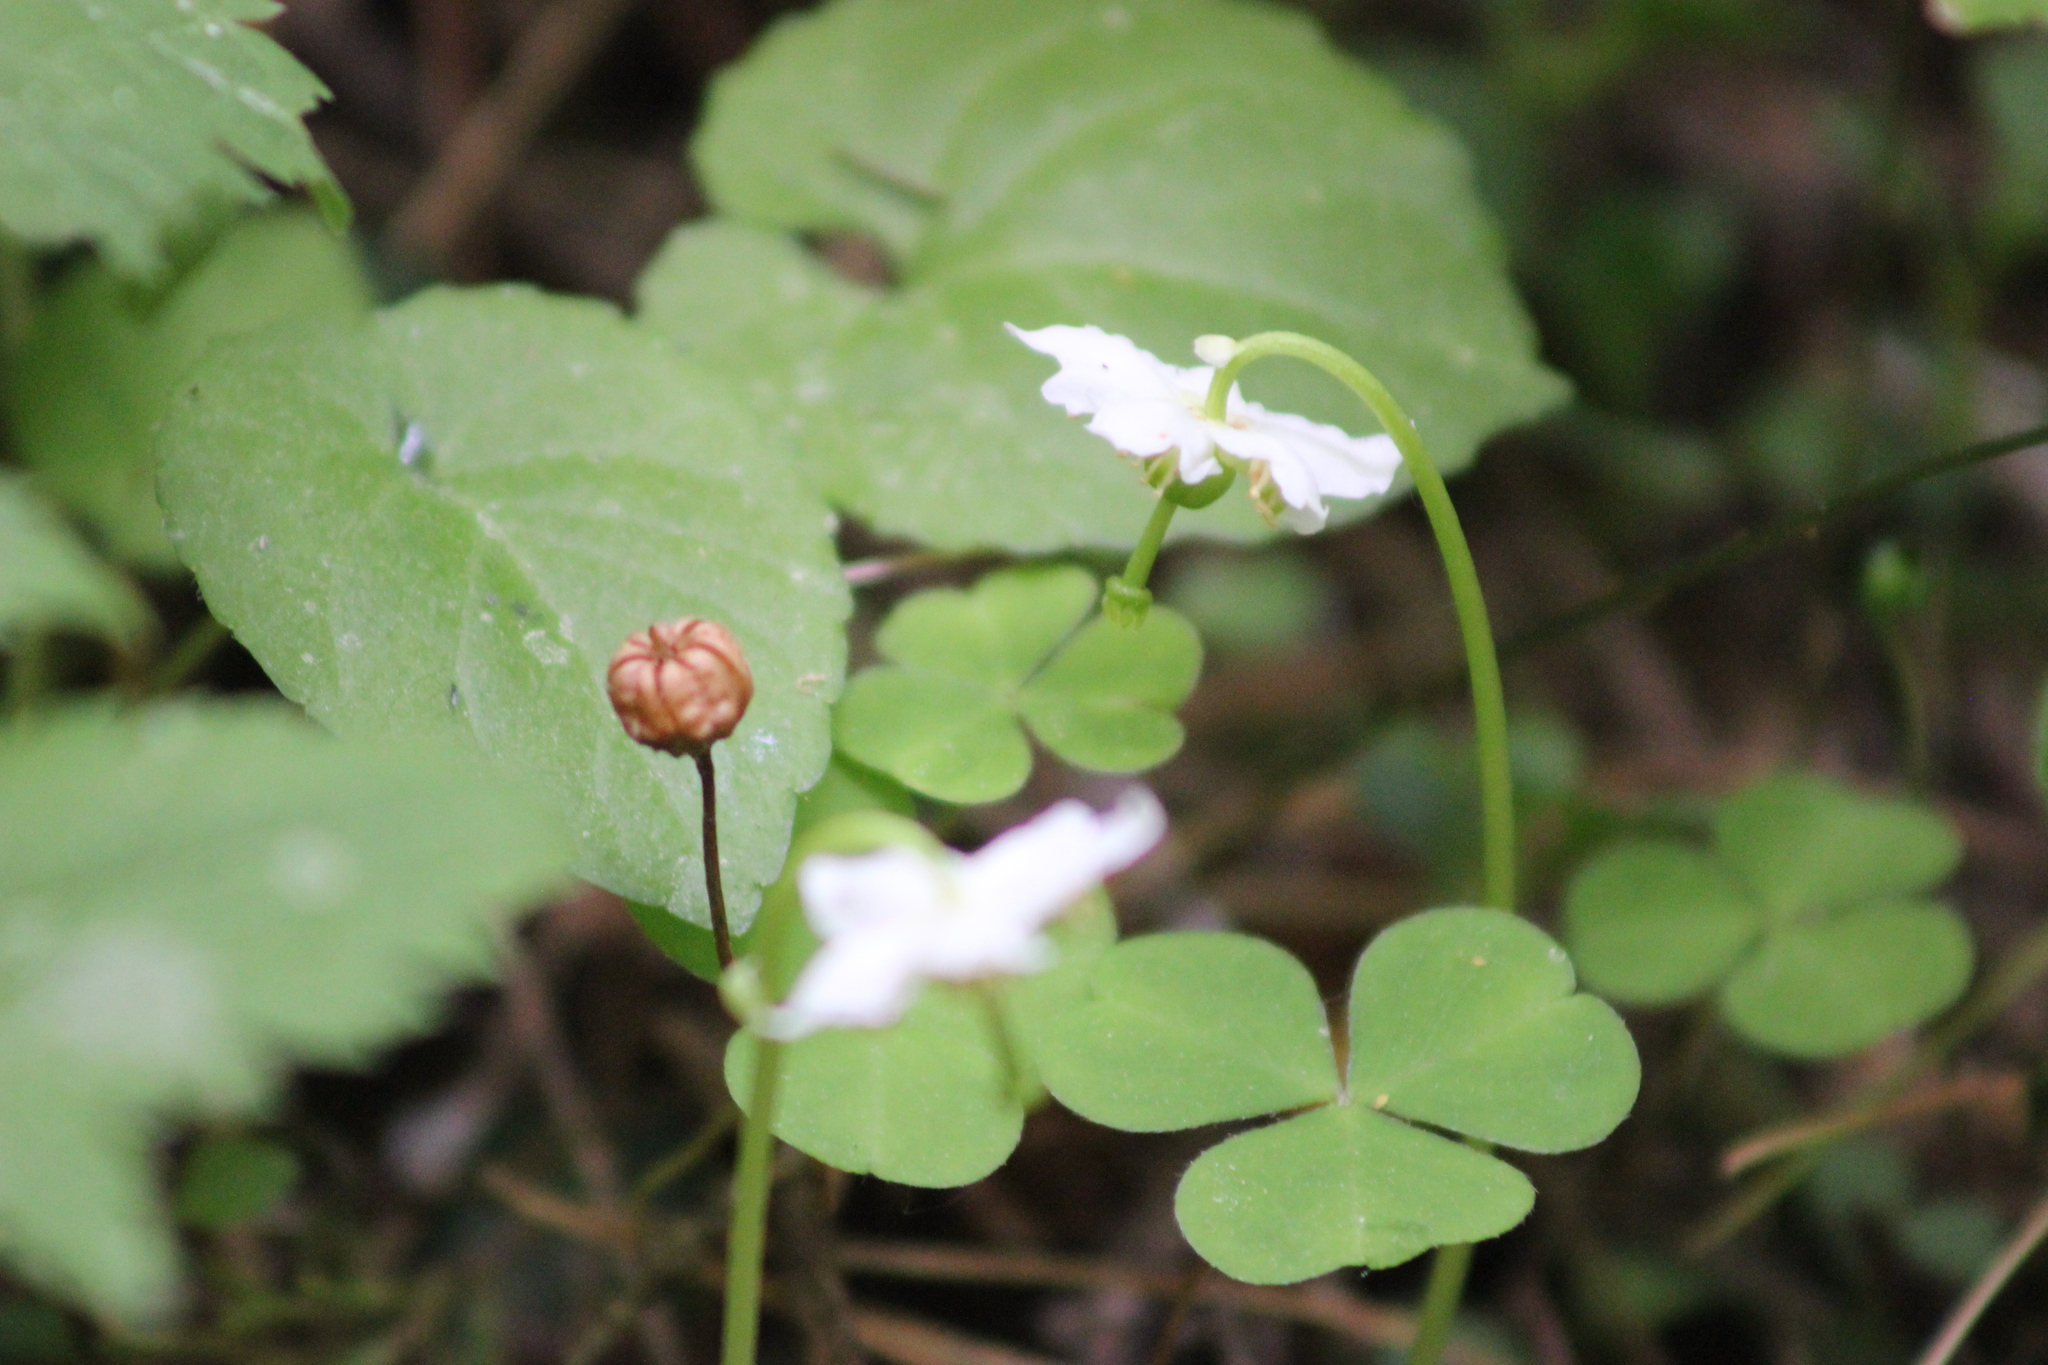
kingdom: Plantae
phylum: Tracheophyta
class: Magnoliopsida
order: Ericales
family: Ericaceae
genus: Moneses
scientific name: Moneses uniflora
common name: One-flowered wintergreen
